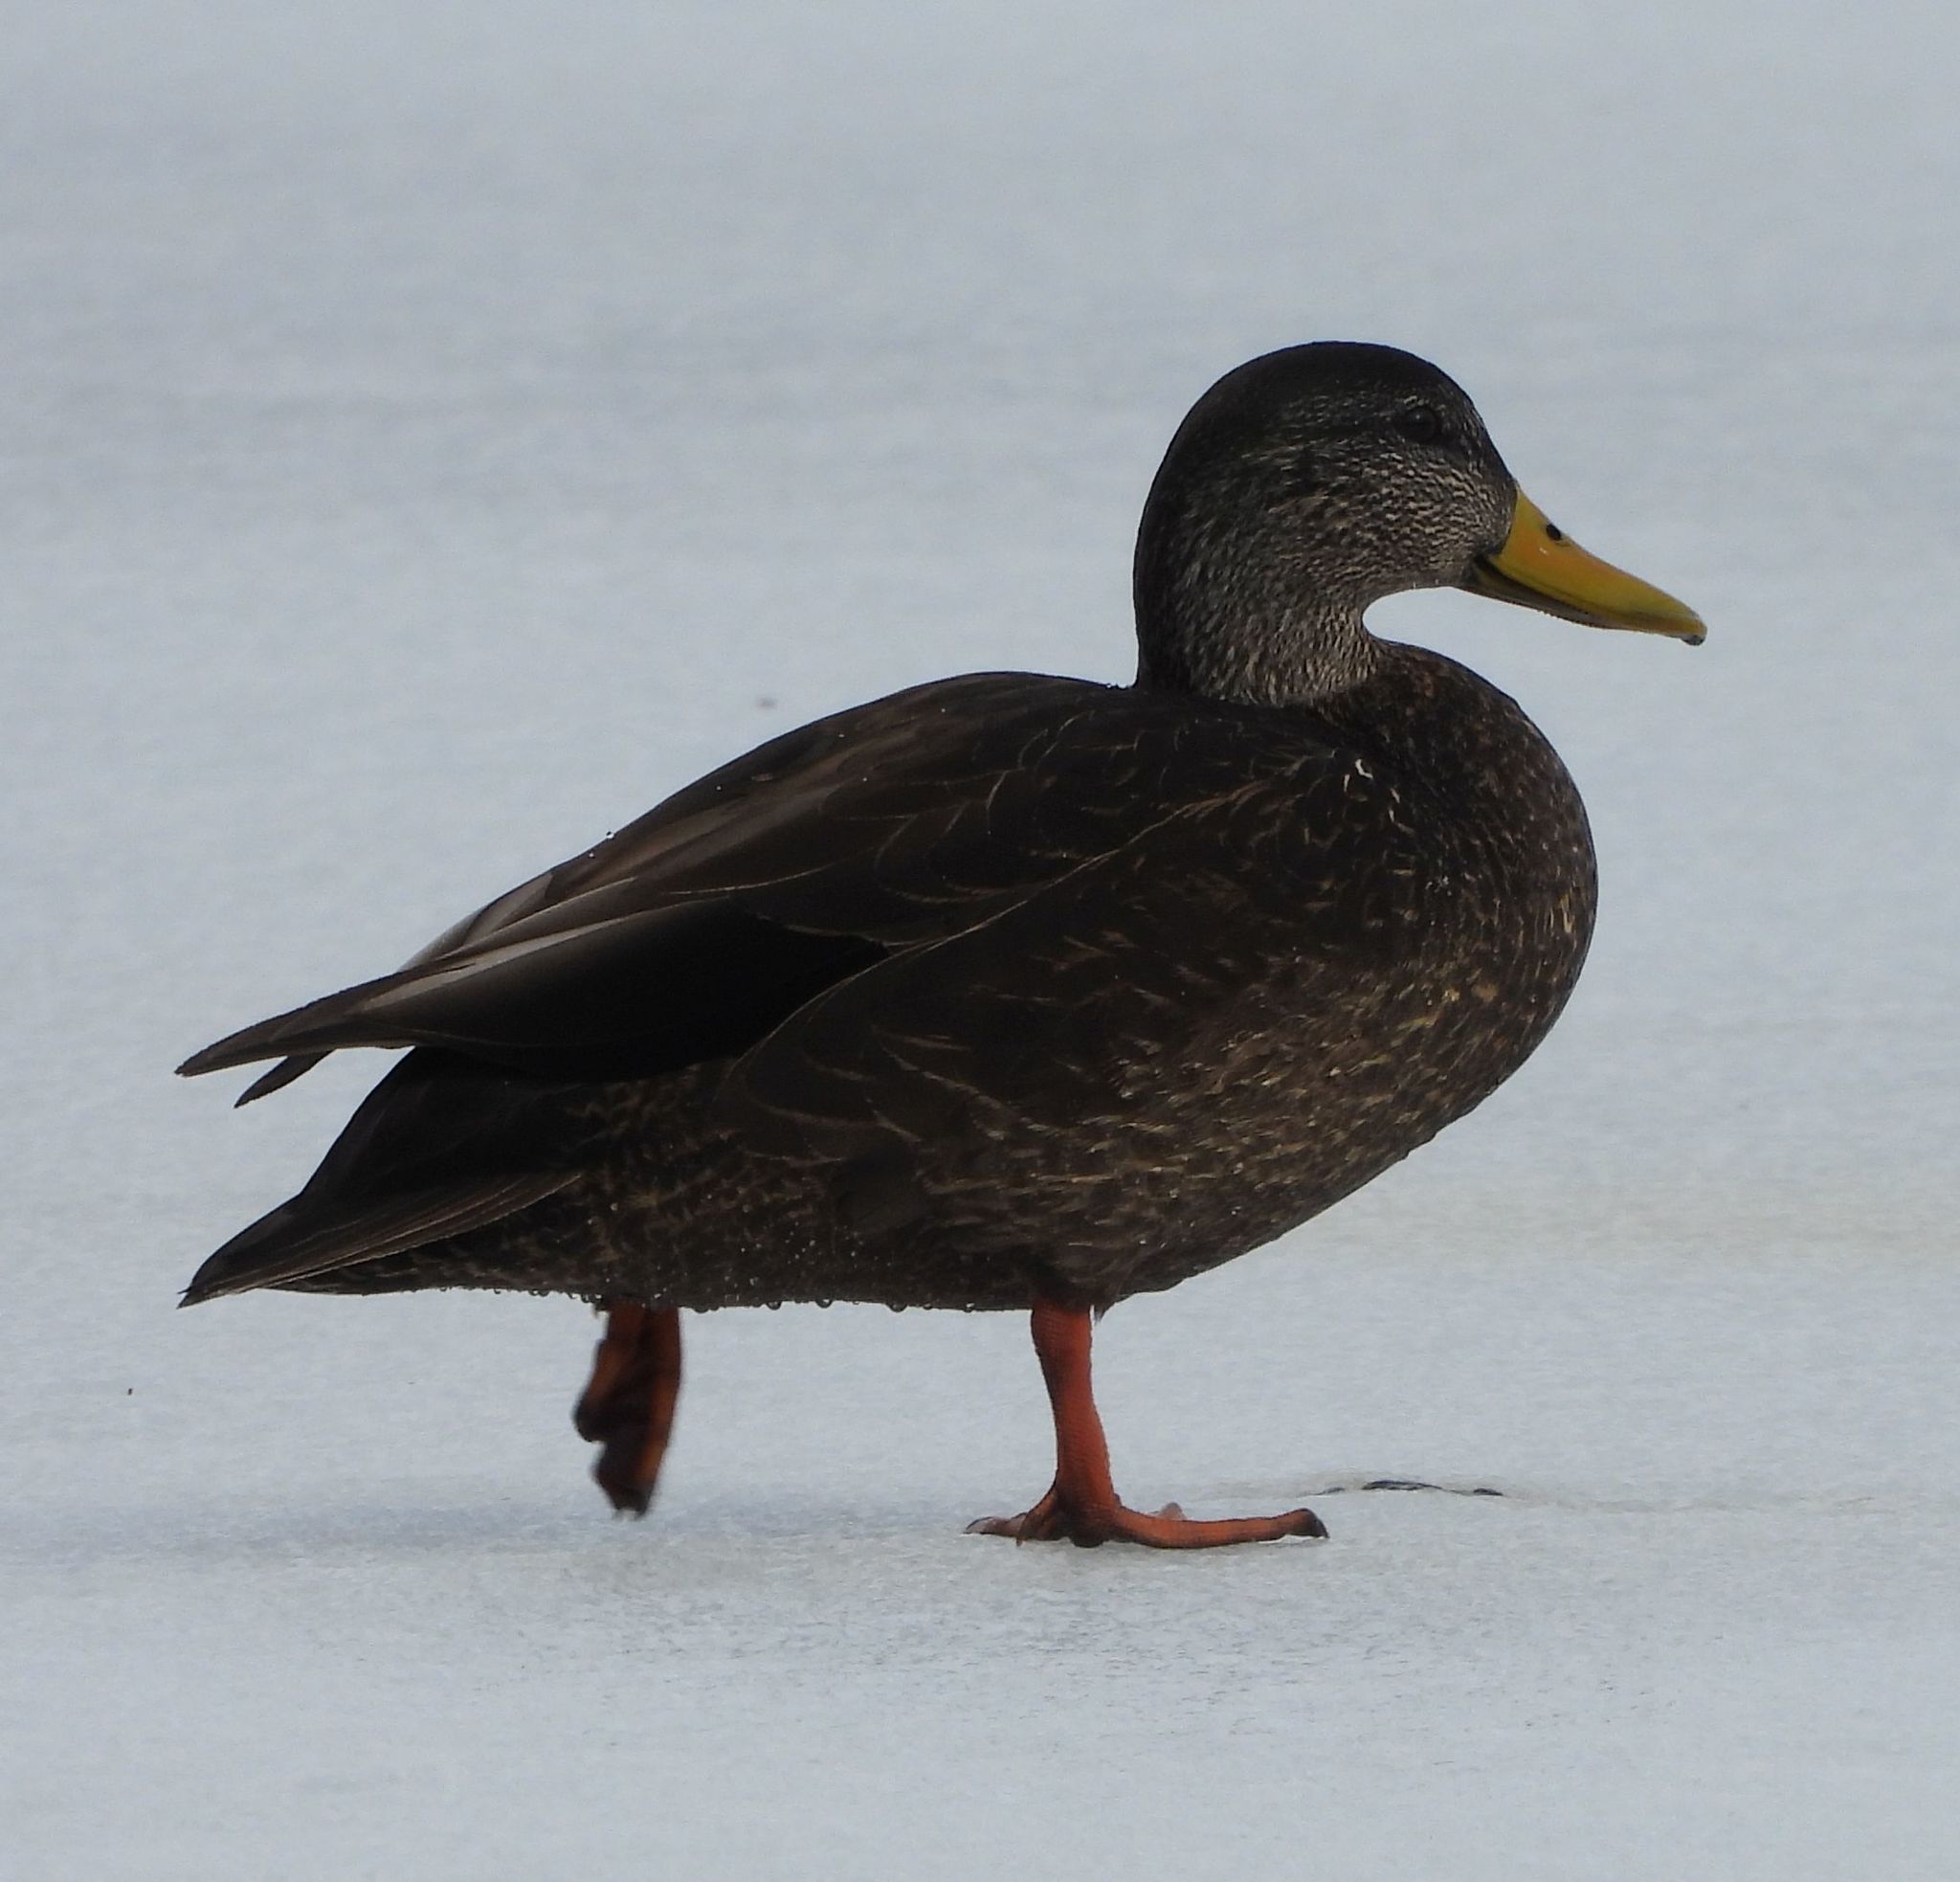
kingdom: Animalia
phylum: Chordata
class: Aves
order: Anseriformes
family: Anatidae
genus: Anas
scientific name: Anas rubripes
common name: American black duck
